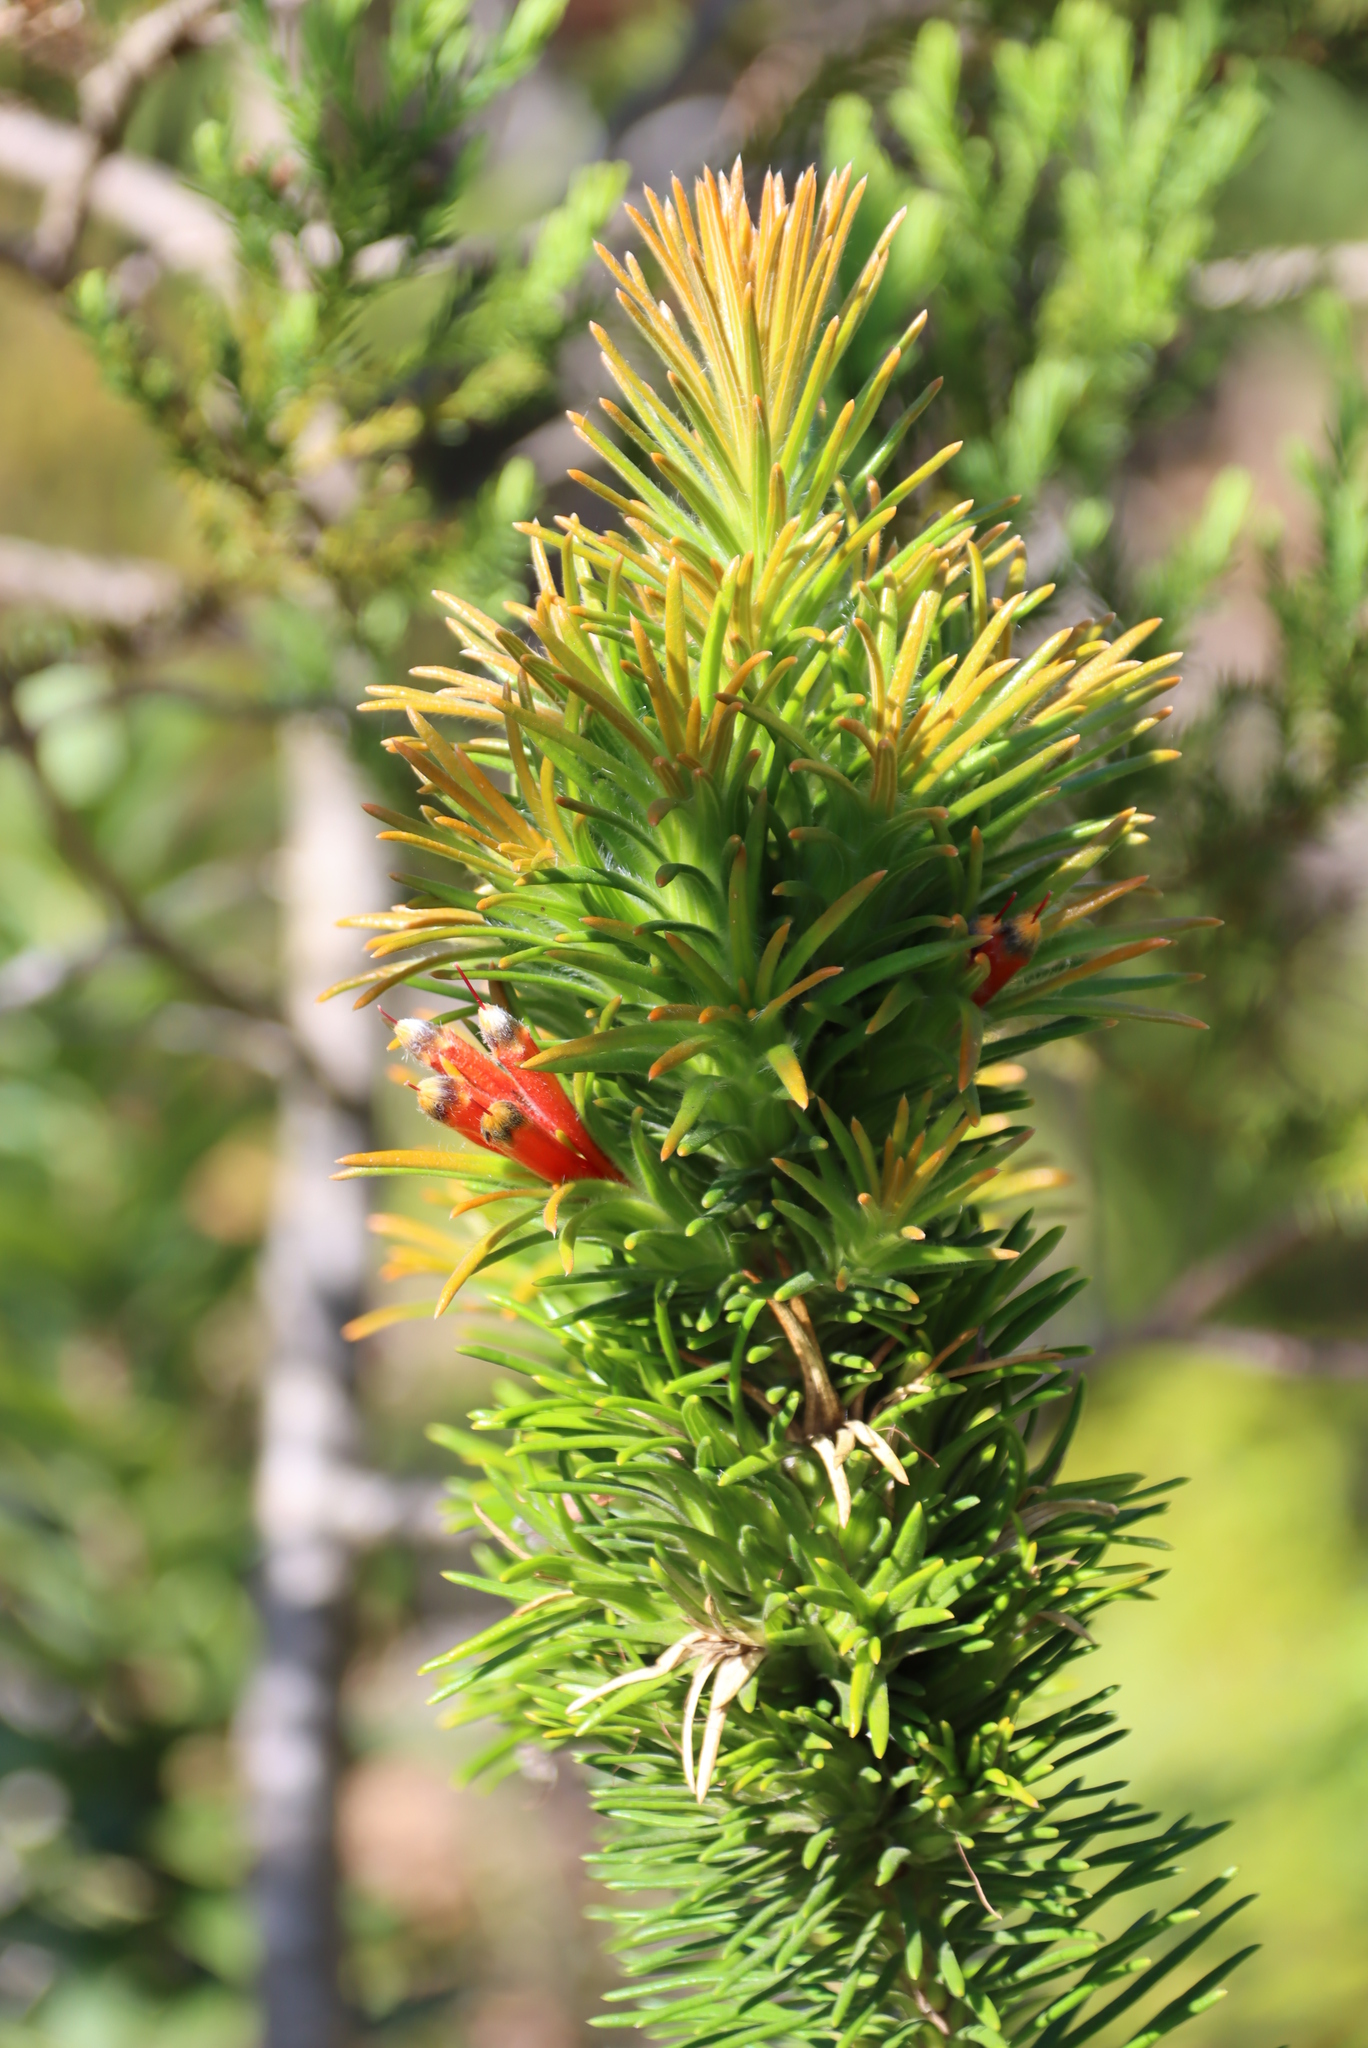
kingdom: Plantae
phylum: Tracheophyta
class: Magnoliopsida
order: Lamiales
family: Stilbaceae
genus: Retzia
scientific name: Retzia capensis
